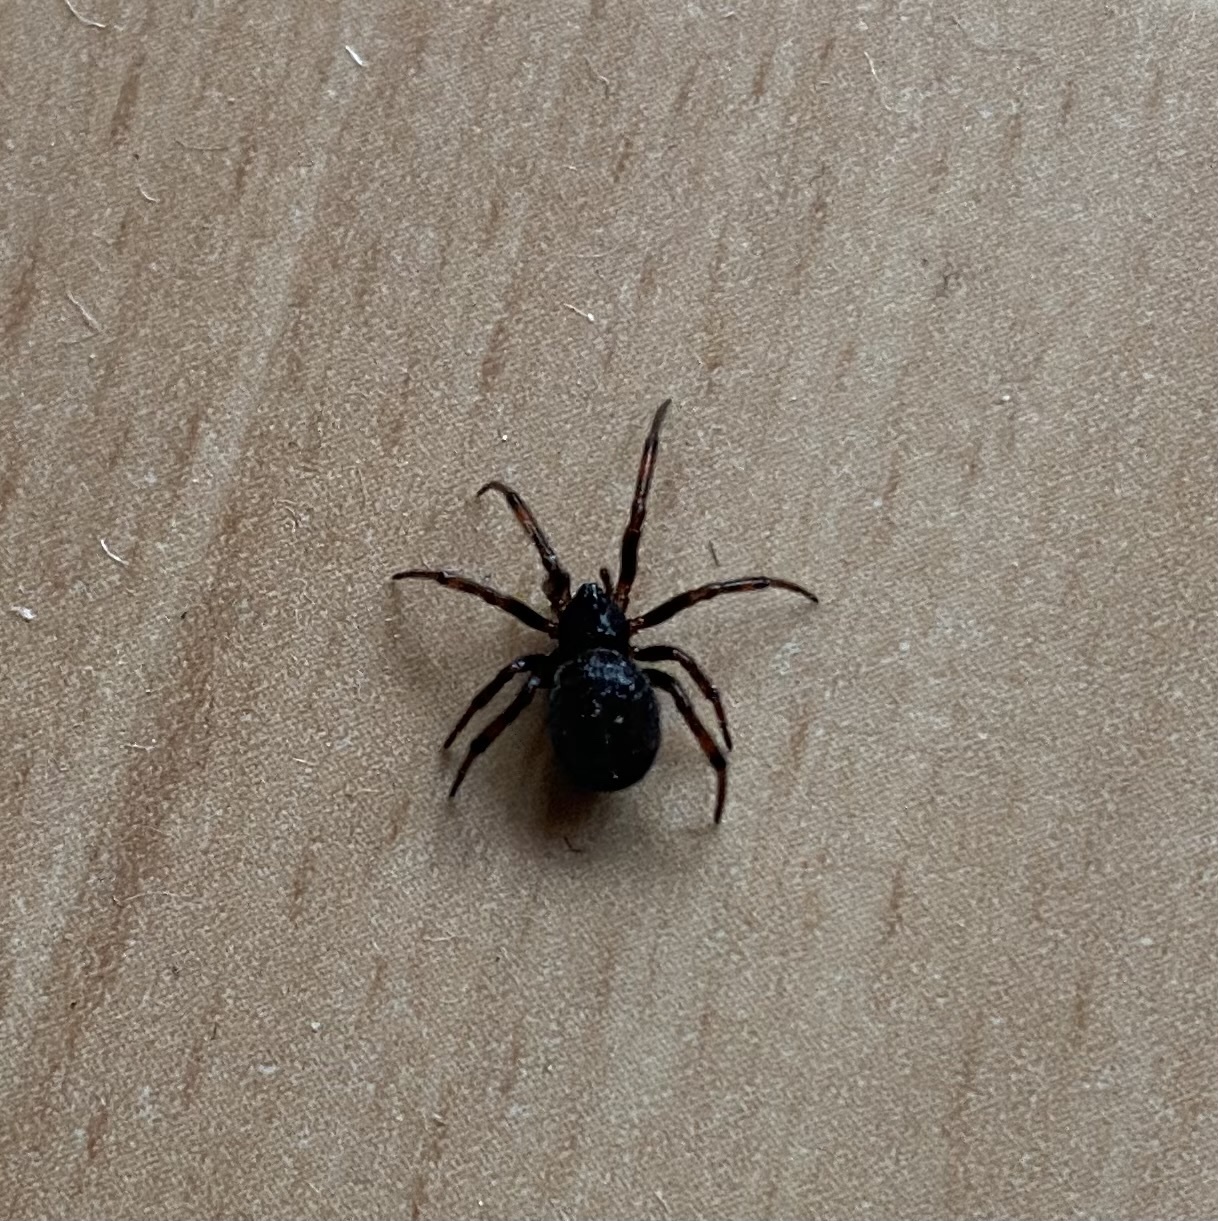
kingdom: Animalia
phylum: Arthropoda
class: Arachnida
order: Araneae
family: Theridiidae
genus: Steatoda
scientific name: Steatoda bipunctata
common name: False widow
